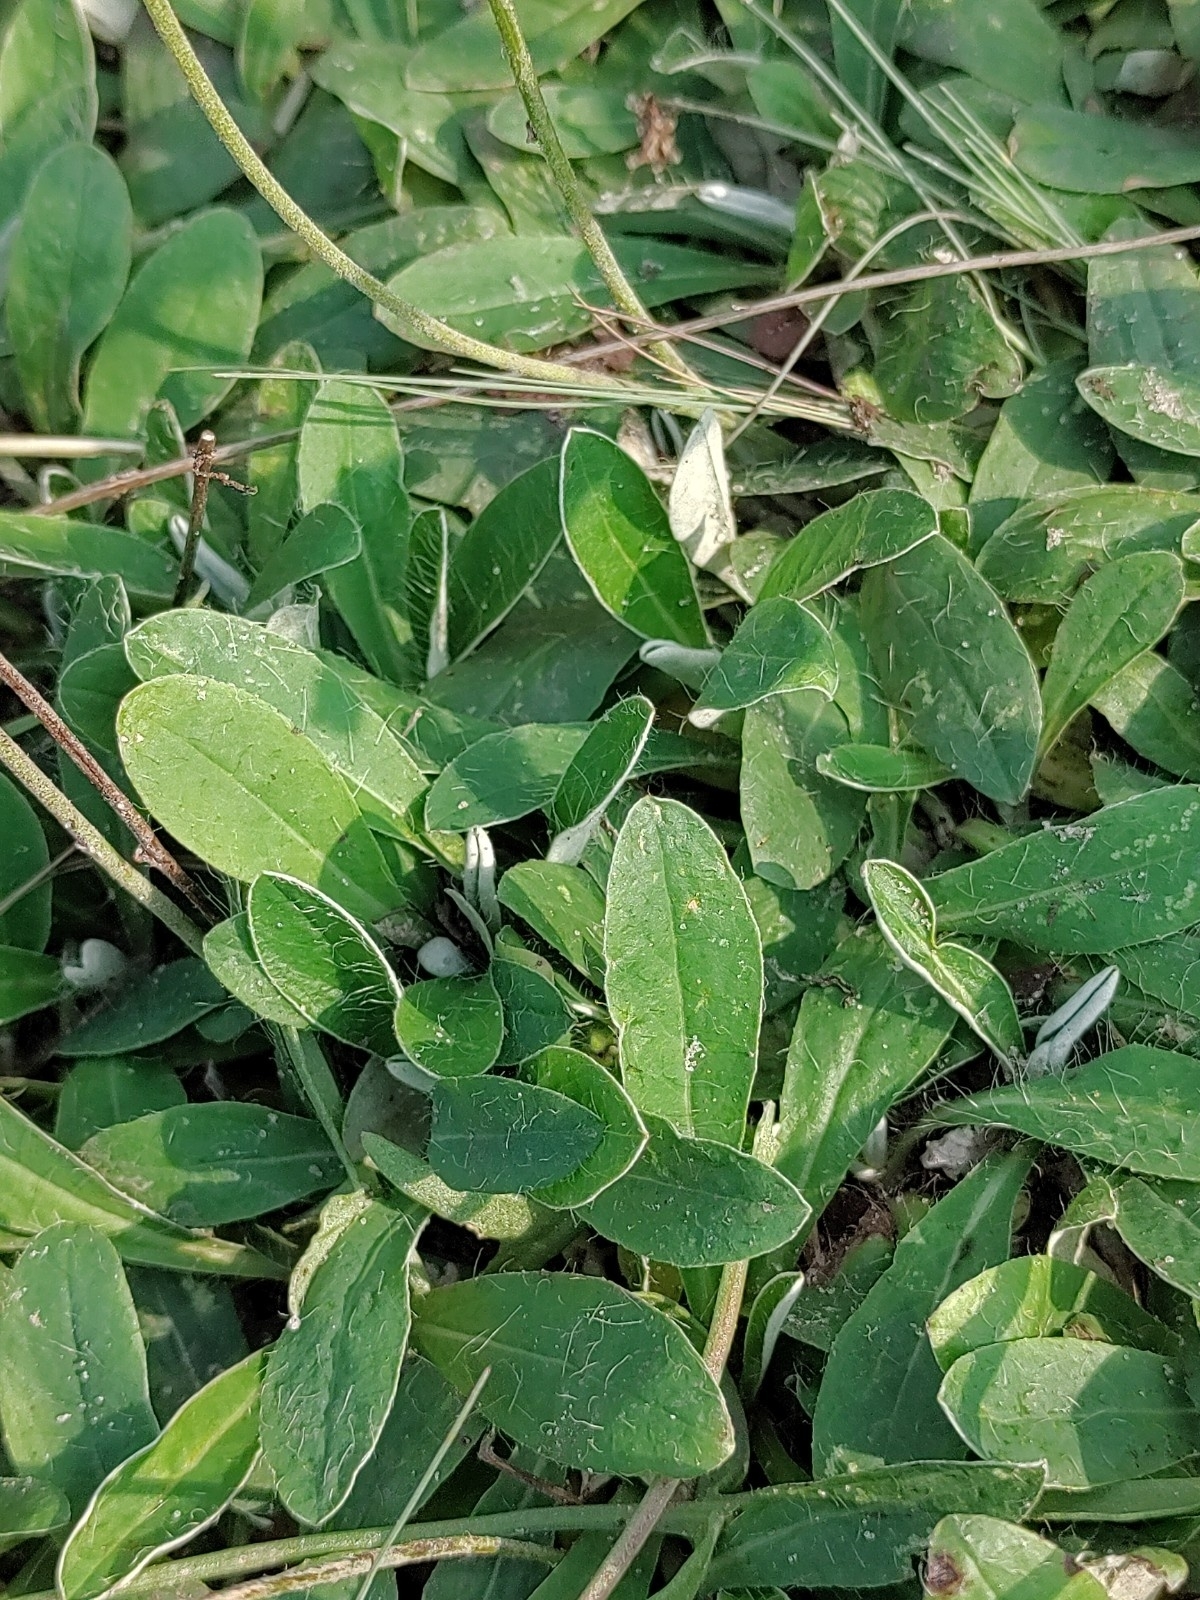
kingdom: Plantae
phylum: Tracheophyta
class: Magnoliopsida
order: Asterales
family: Asteraceae
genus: Pilosella
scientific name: Pilosella officinarum
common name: Mouse-ear hawkweed
